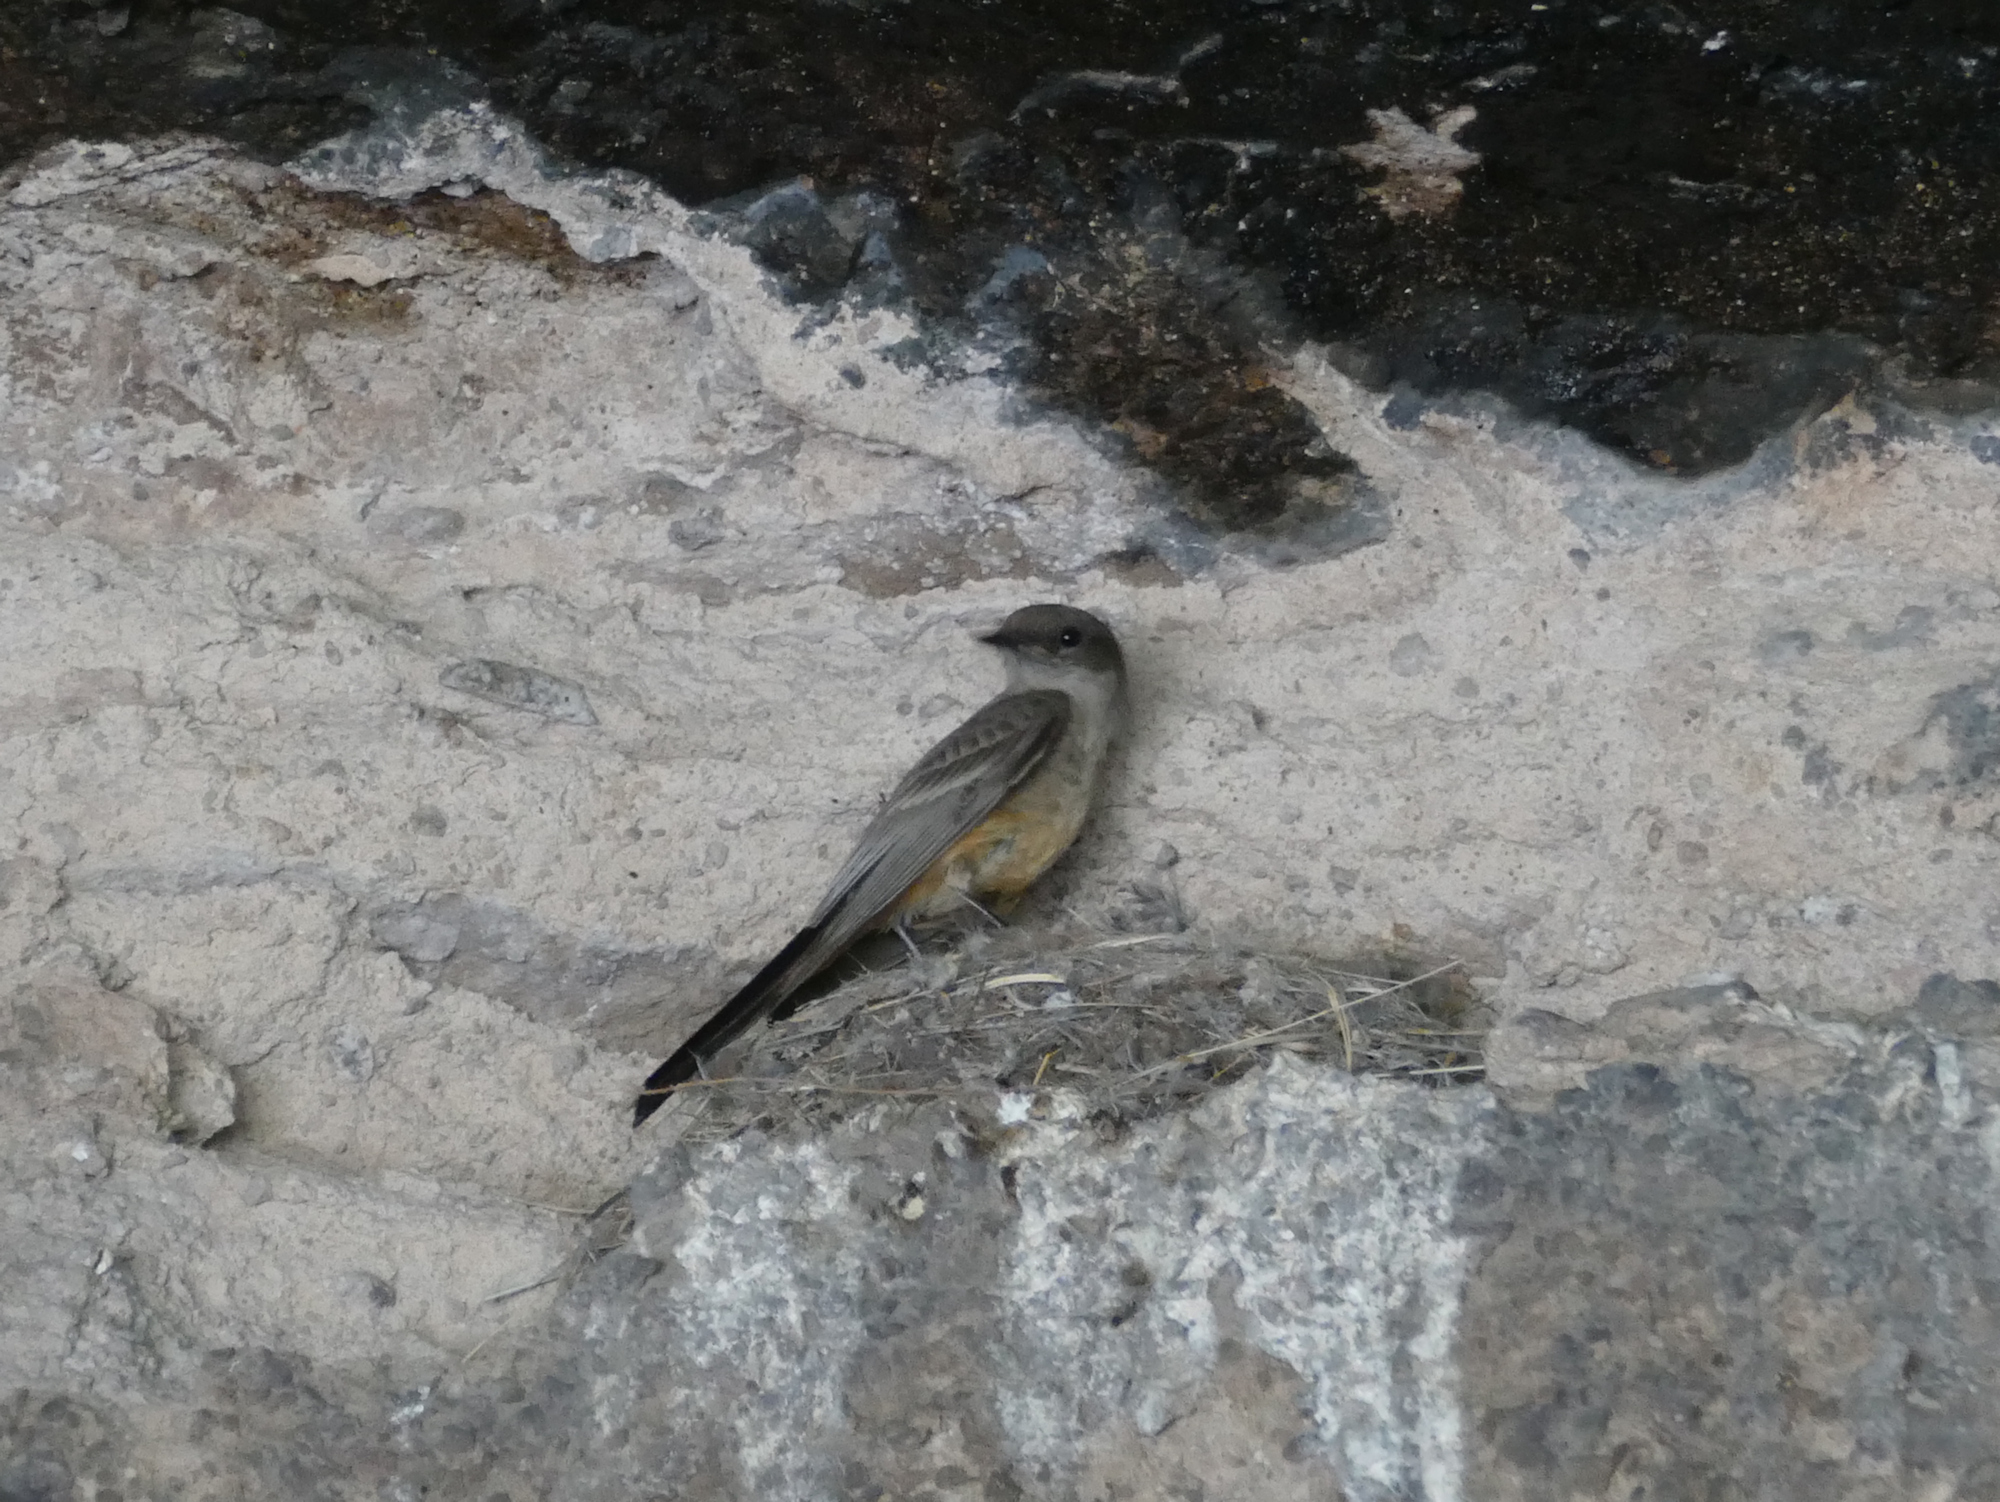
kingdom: Animalia
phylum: Chordata
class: Aves
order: Passeriformes
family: Tyrannidae
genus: Sayornis
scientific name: Sayornis saya
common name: Say's phoebe
